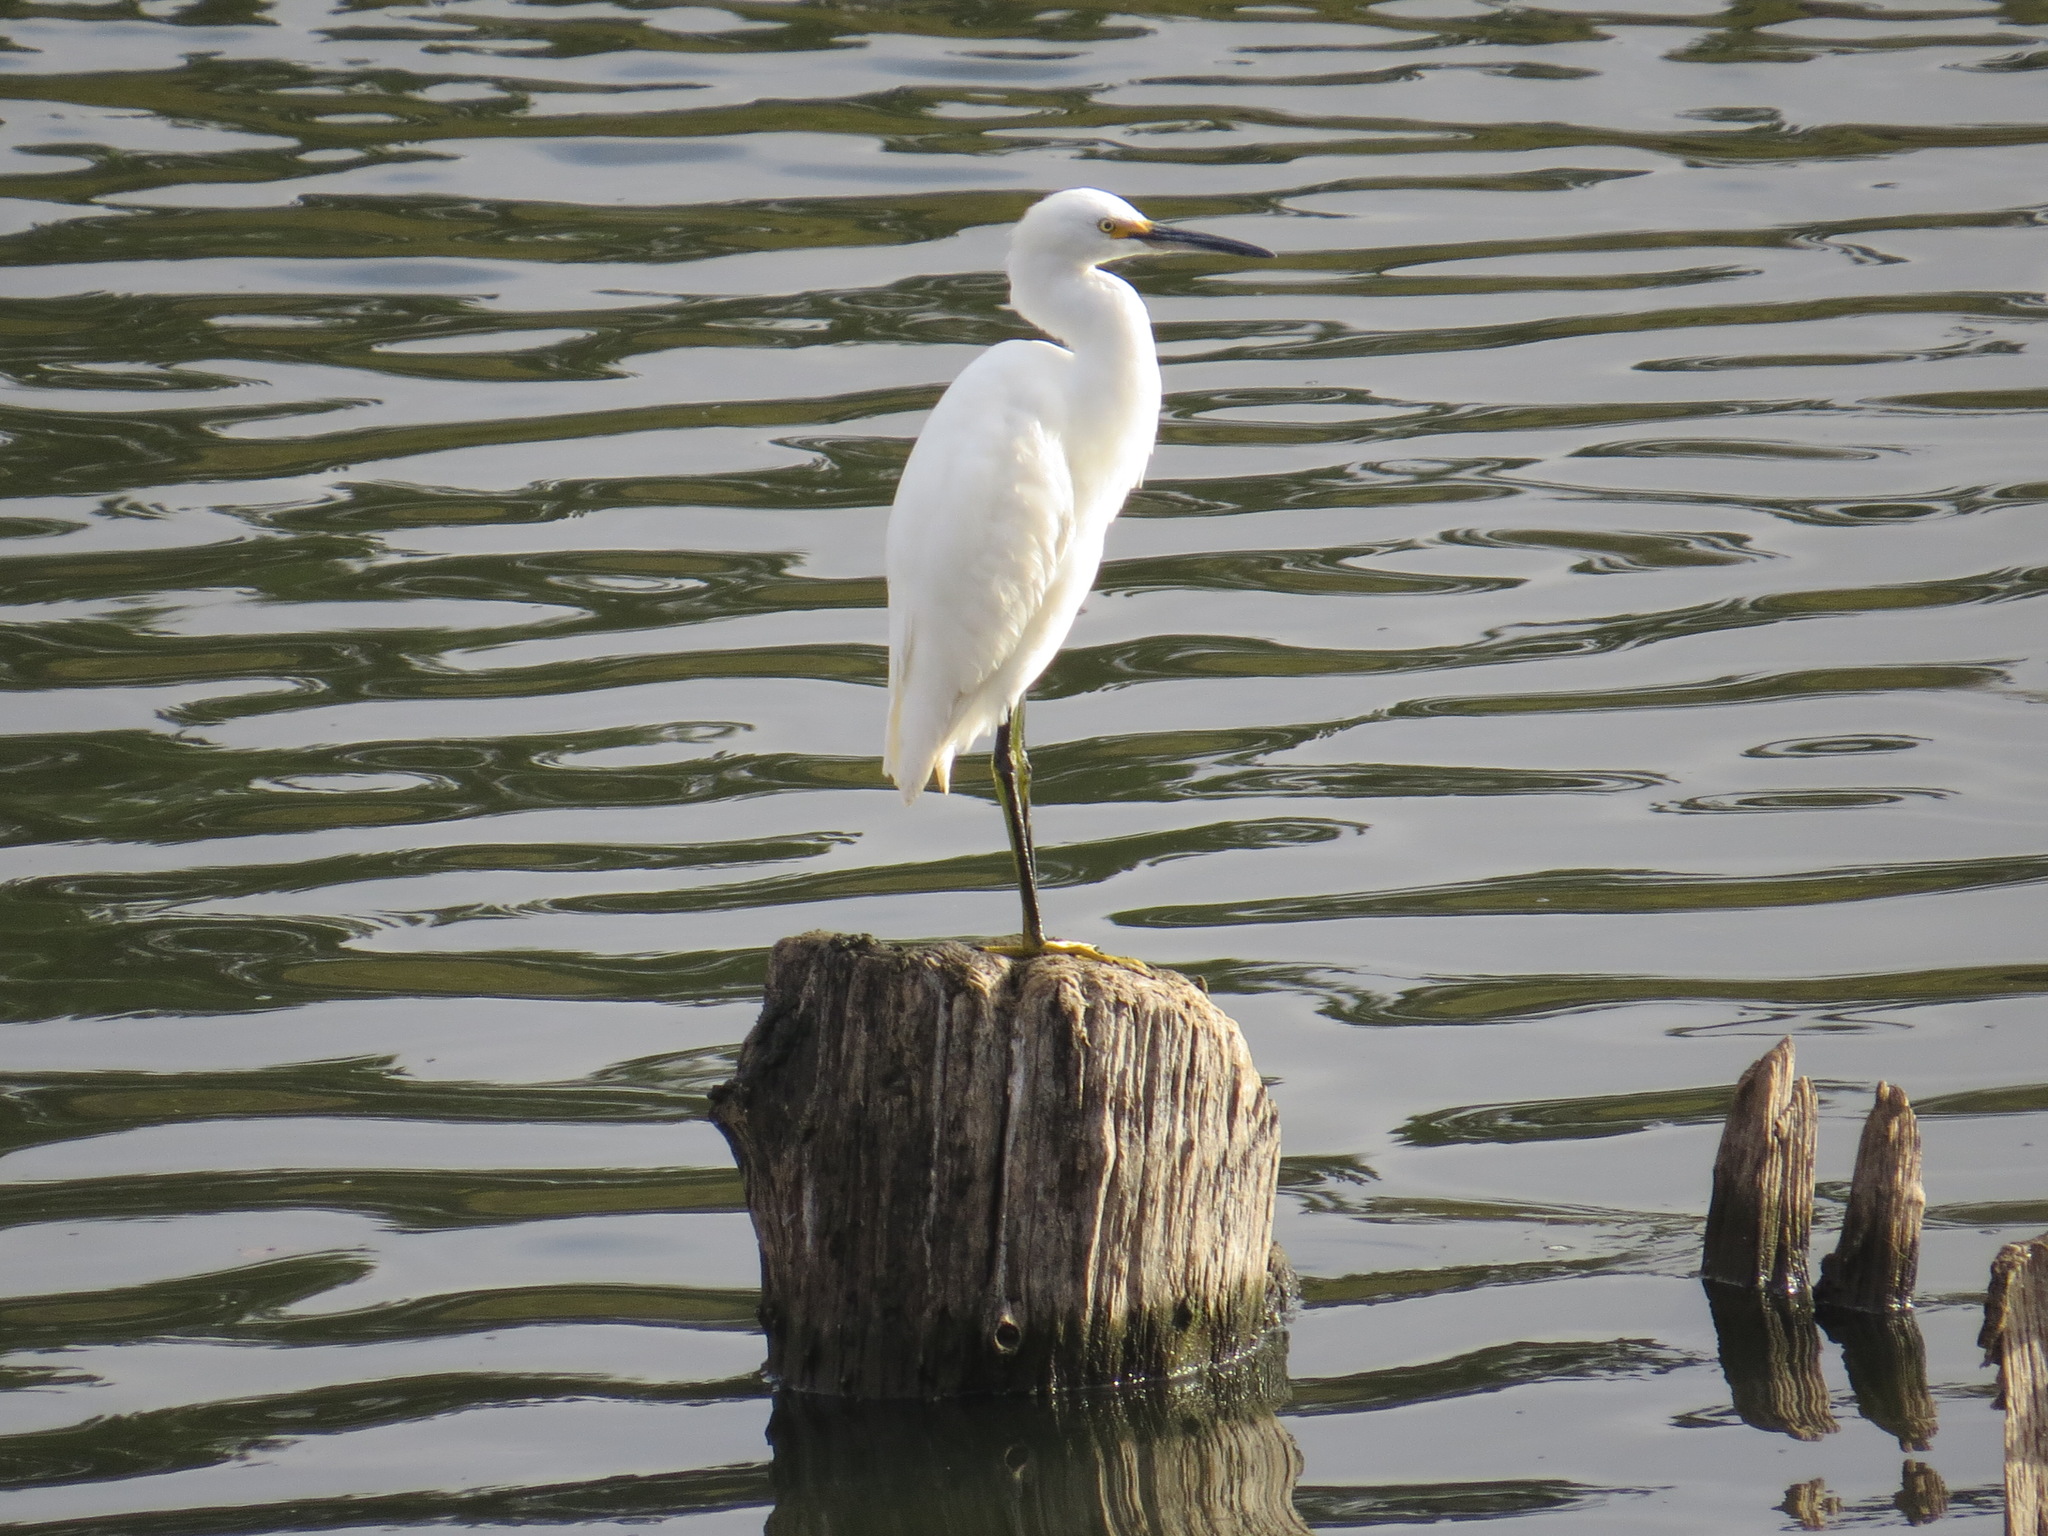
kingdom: Animalia
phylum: Chordata
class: Aves
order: Pelecaniformes
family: Ardeidae
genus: Egretta
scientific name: Egretta thula
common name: Snowy egret
